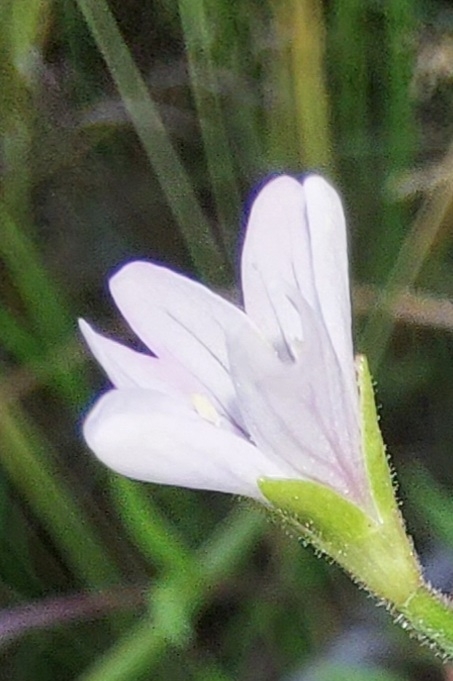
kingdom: Plantae
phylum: Tracheophyta
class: Magnoliopsida
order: Myrtales
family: Onagraceae
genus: Epilobium
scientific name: Epilobium palustre
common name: Marsh willowherb
